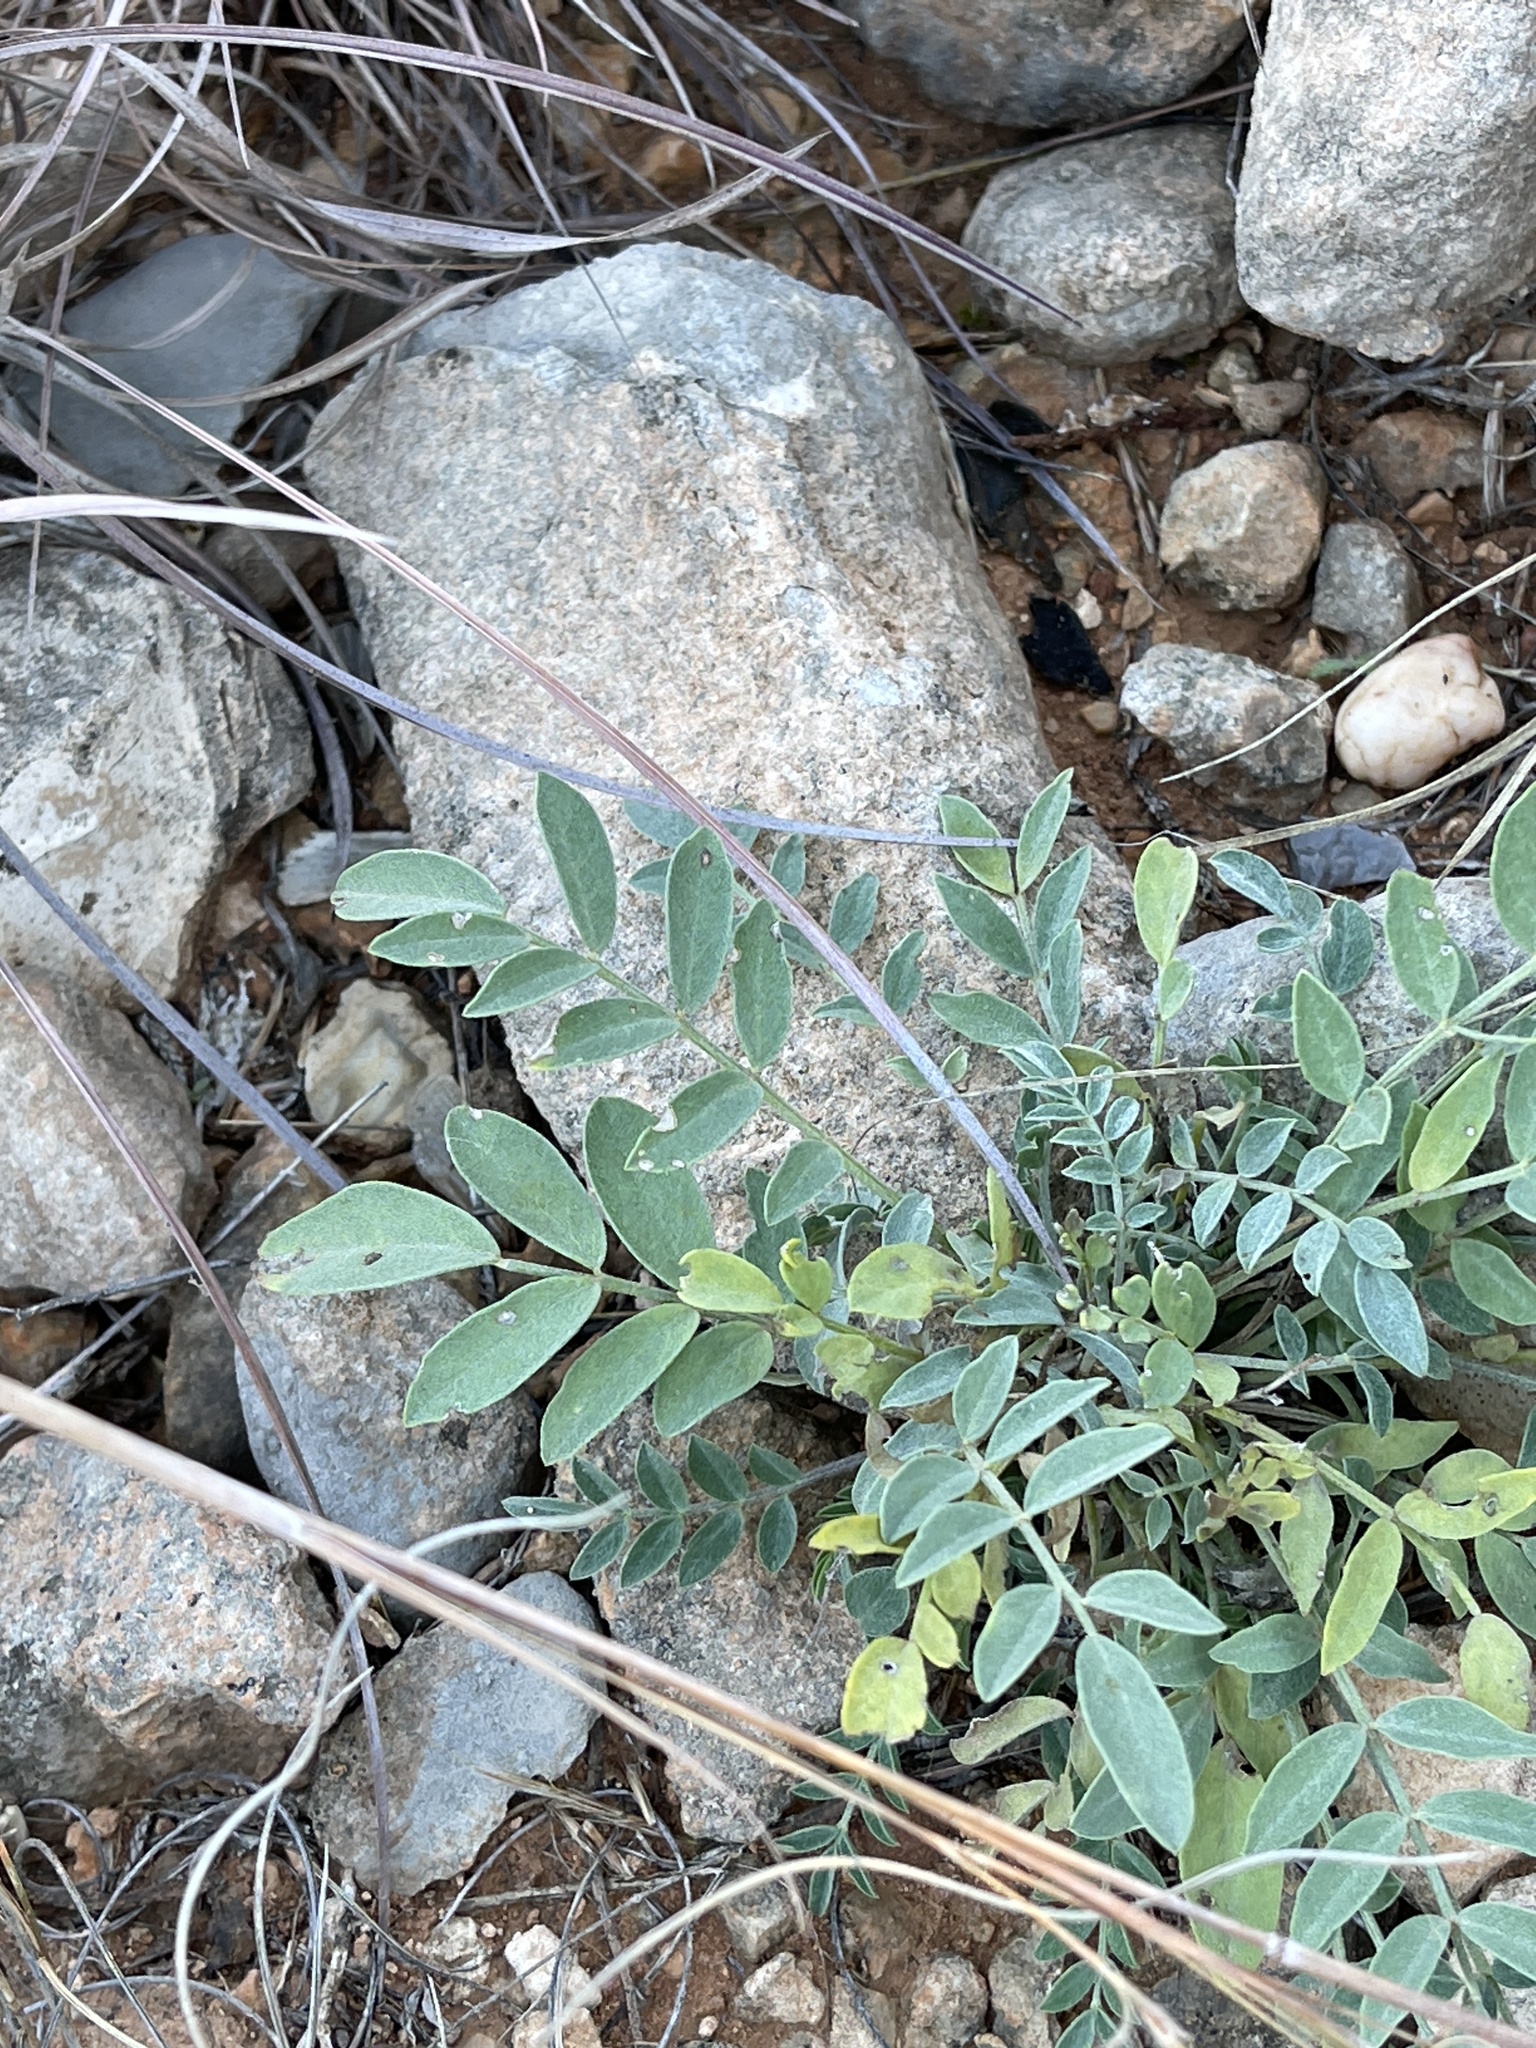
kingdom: Plantae
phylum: Tracheophyta
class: Magnoliopsida
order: Fabales
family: Fabaceae
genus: Astragalus
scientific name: Astragalus lotiflorus
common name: Lotus milk-vetch
